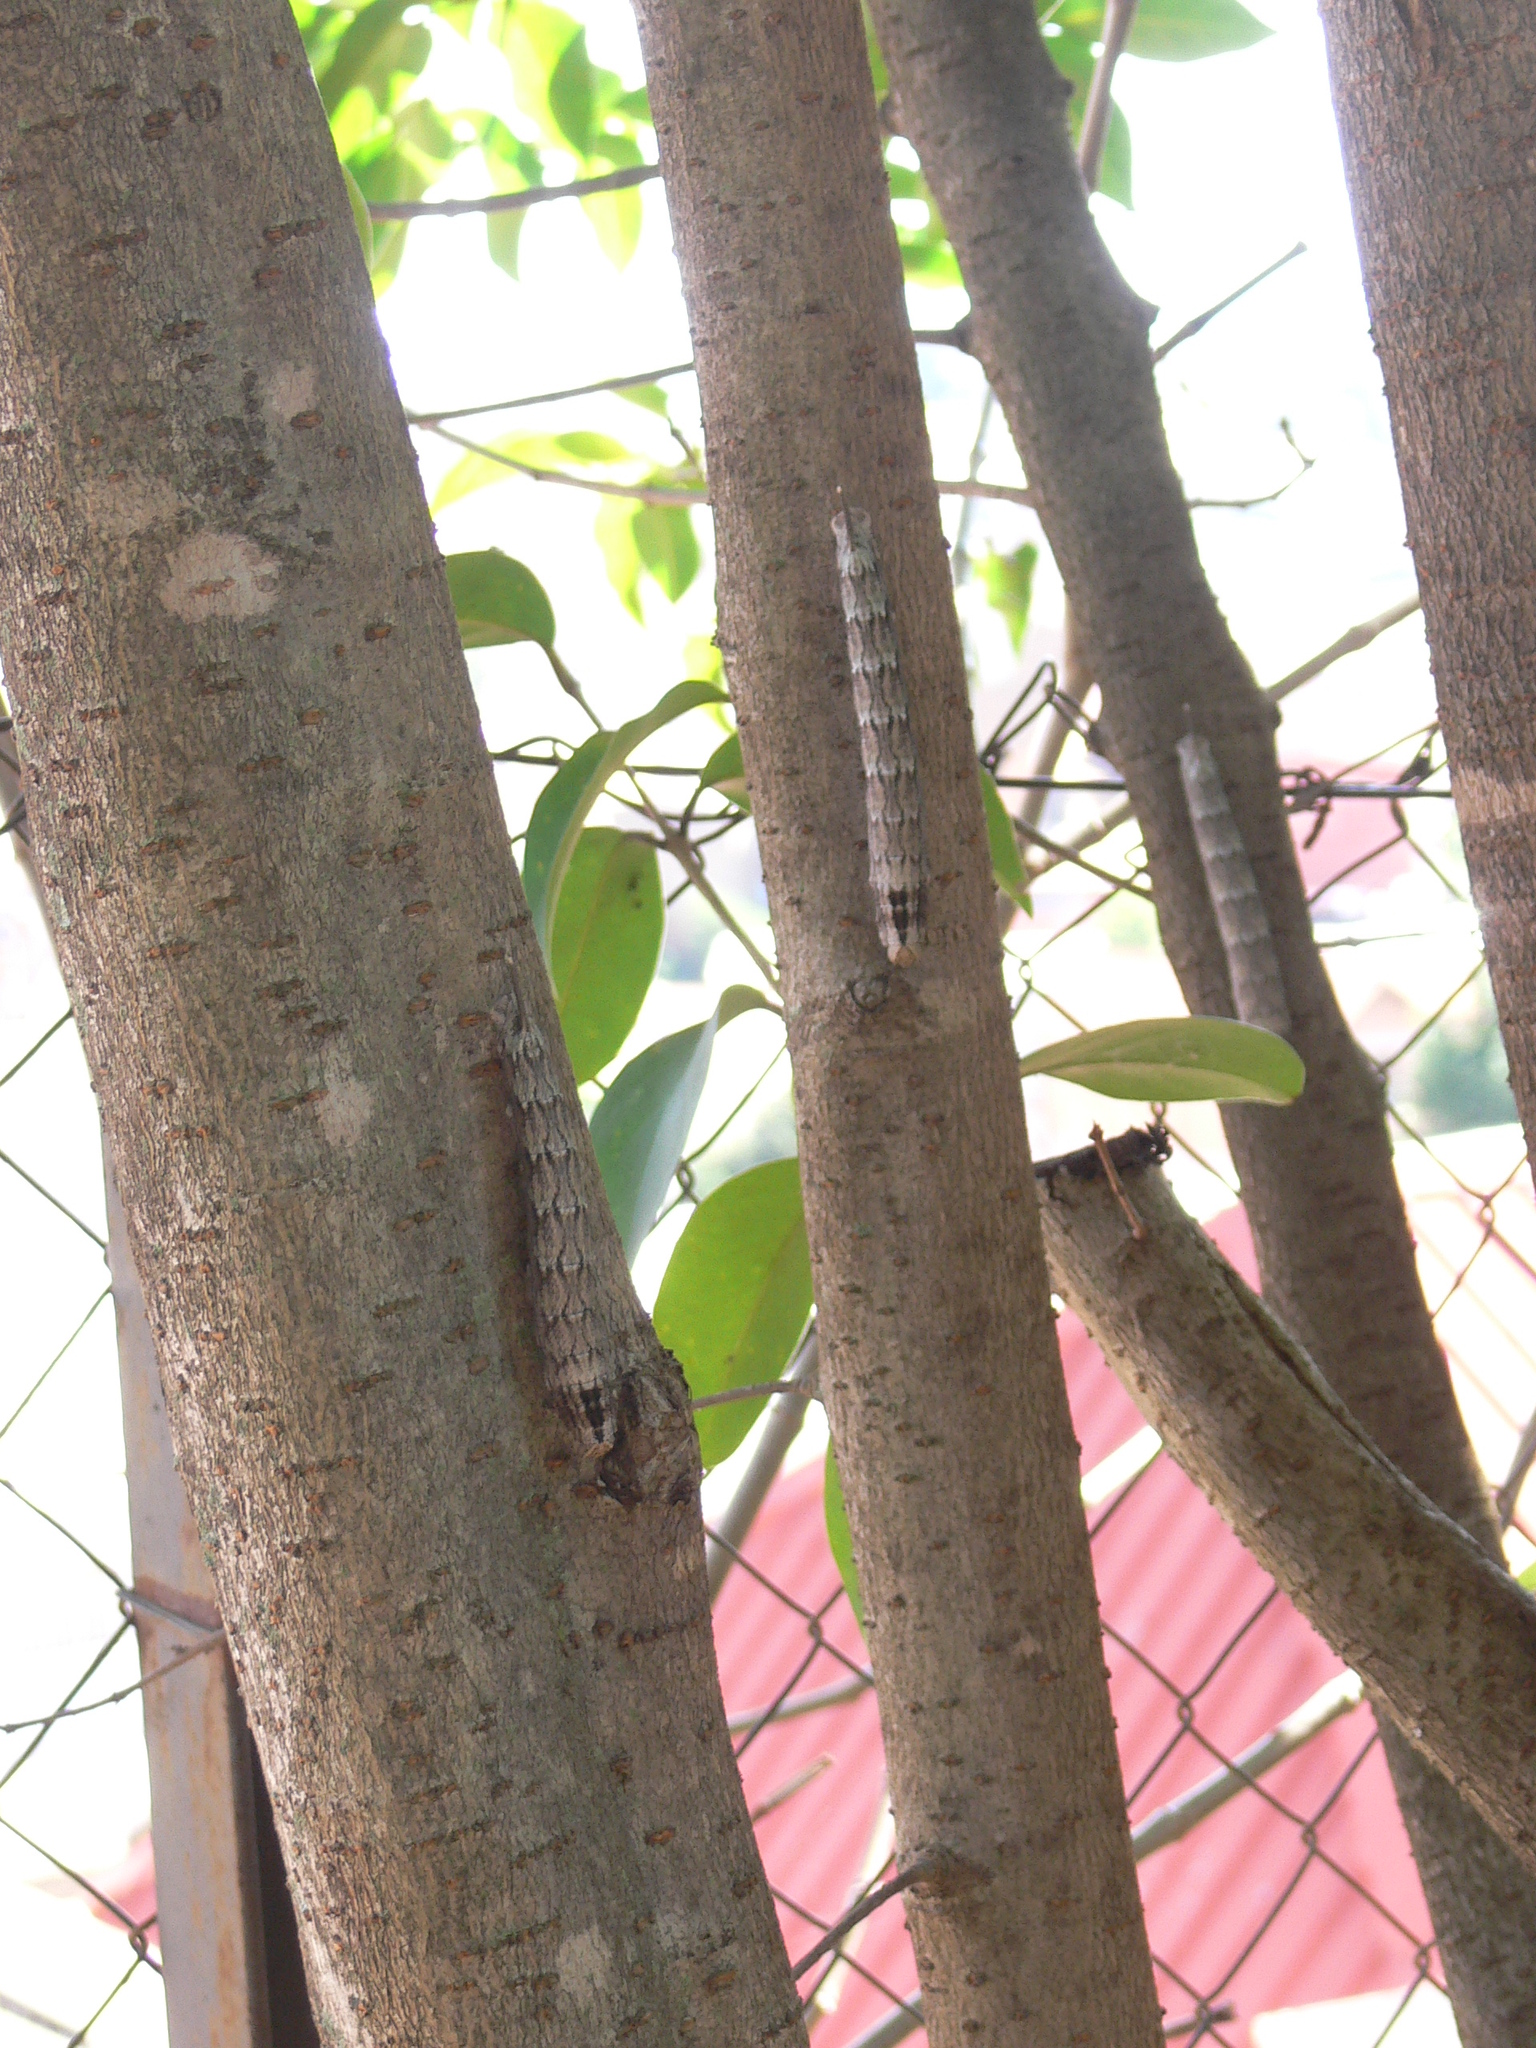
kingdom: Animalia
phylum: Arthropoda
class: Insecta
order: Lepidoptera
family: Sphingidae
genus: Panogena
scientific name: Panogena jasmini
